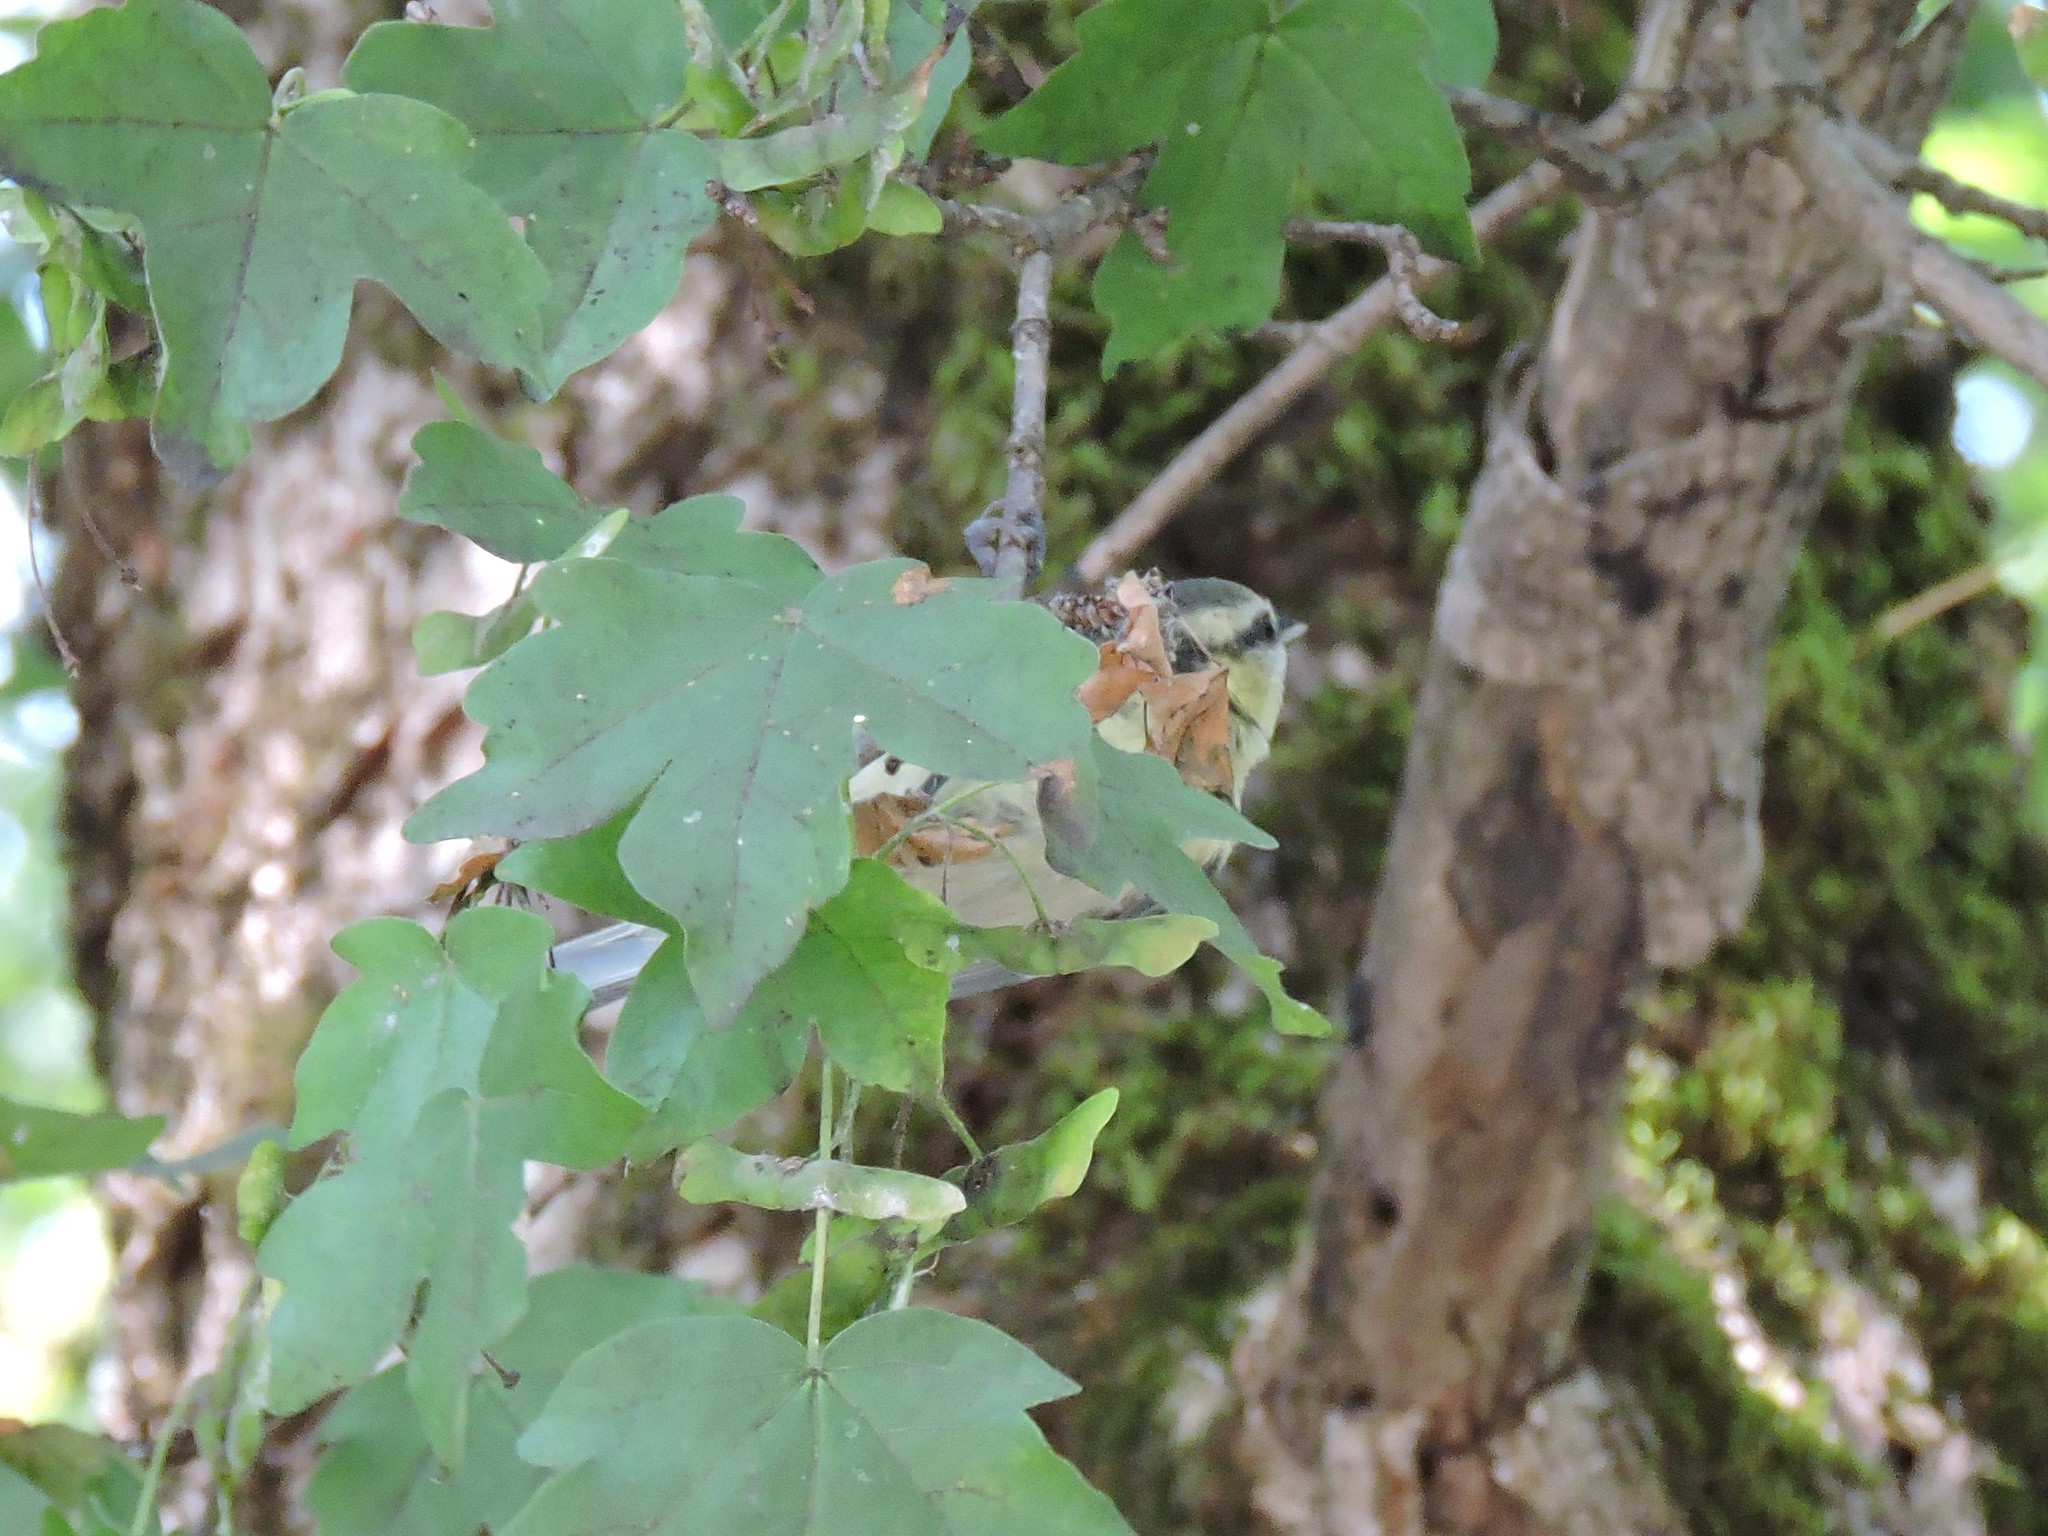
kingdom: Animalia
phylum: Chordata
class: Aves
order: Passeriformes
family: Paridae
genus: Cyanistes
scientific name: Cyanistes caeruleus
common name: Eurasian blue tit
